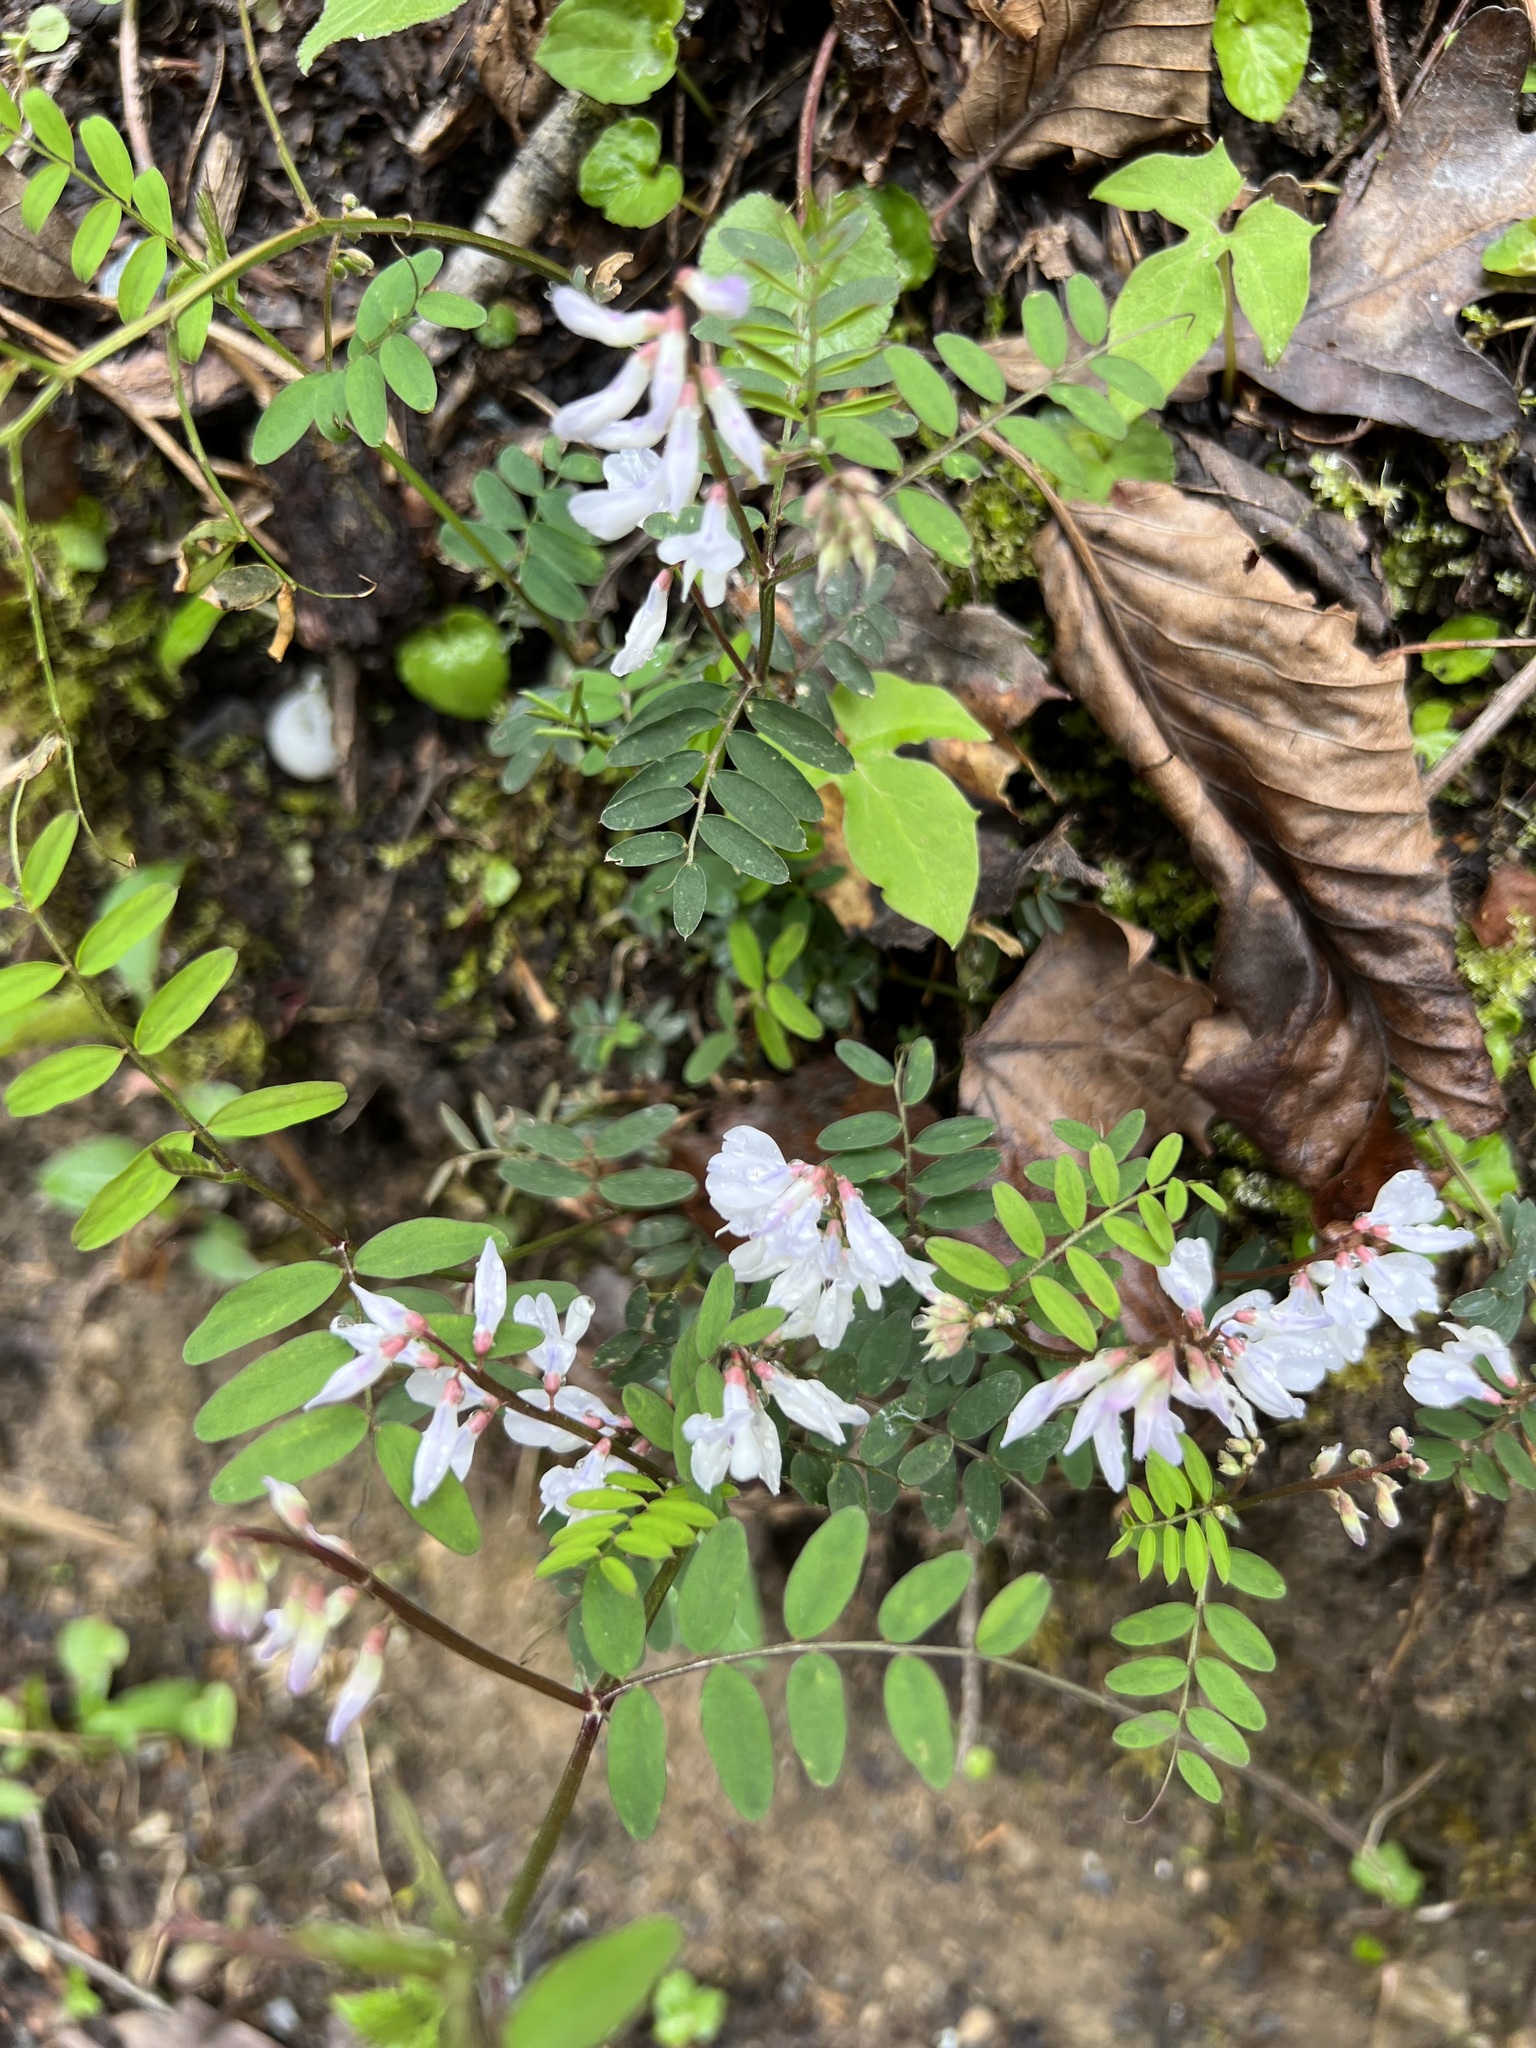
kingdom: Plantae
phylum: Tracheophyta
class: Magnoliopsida
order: Fabales
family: Fabaceae
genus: Vicia
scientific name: Vicia caroliniana
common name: Carolina vetch
